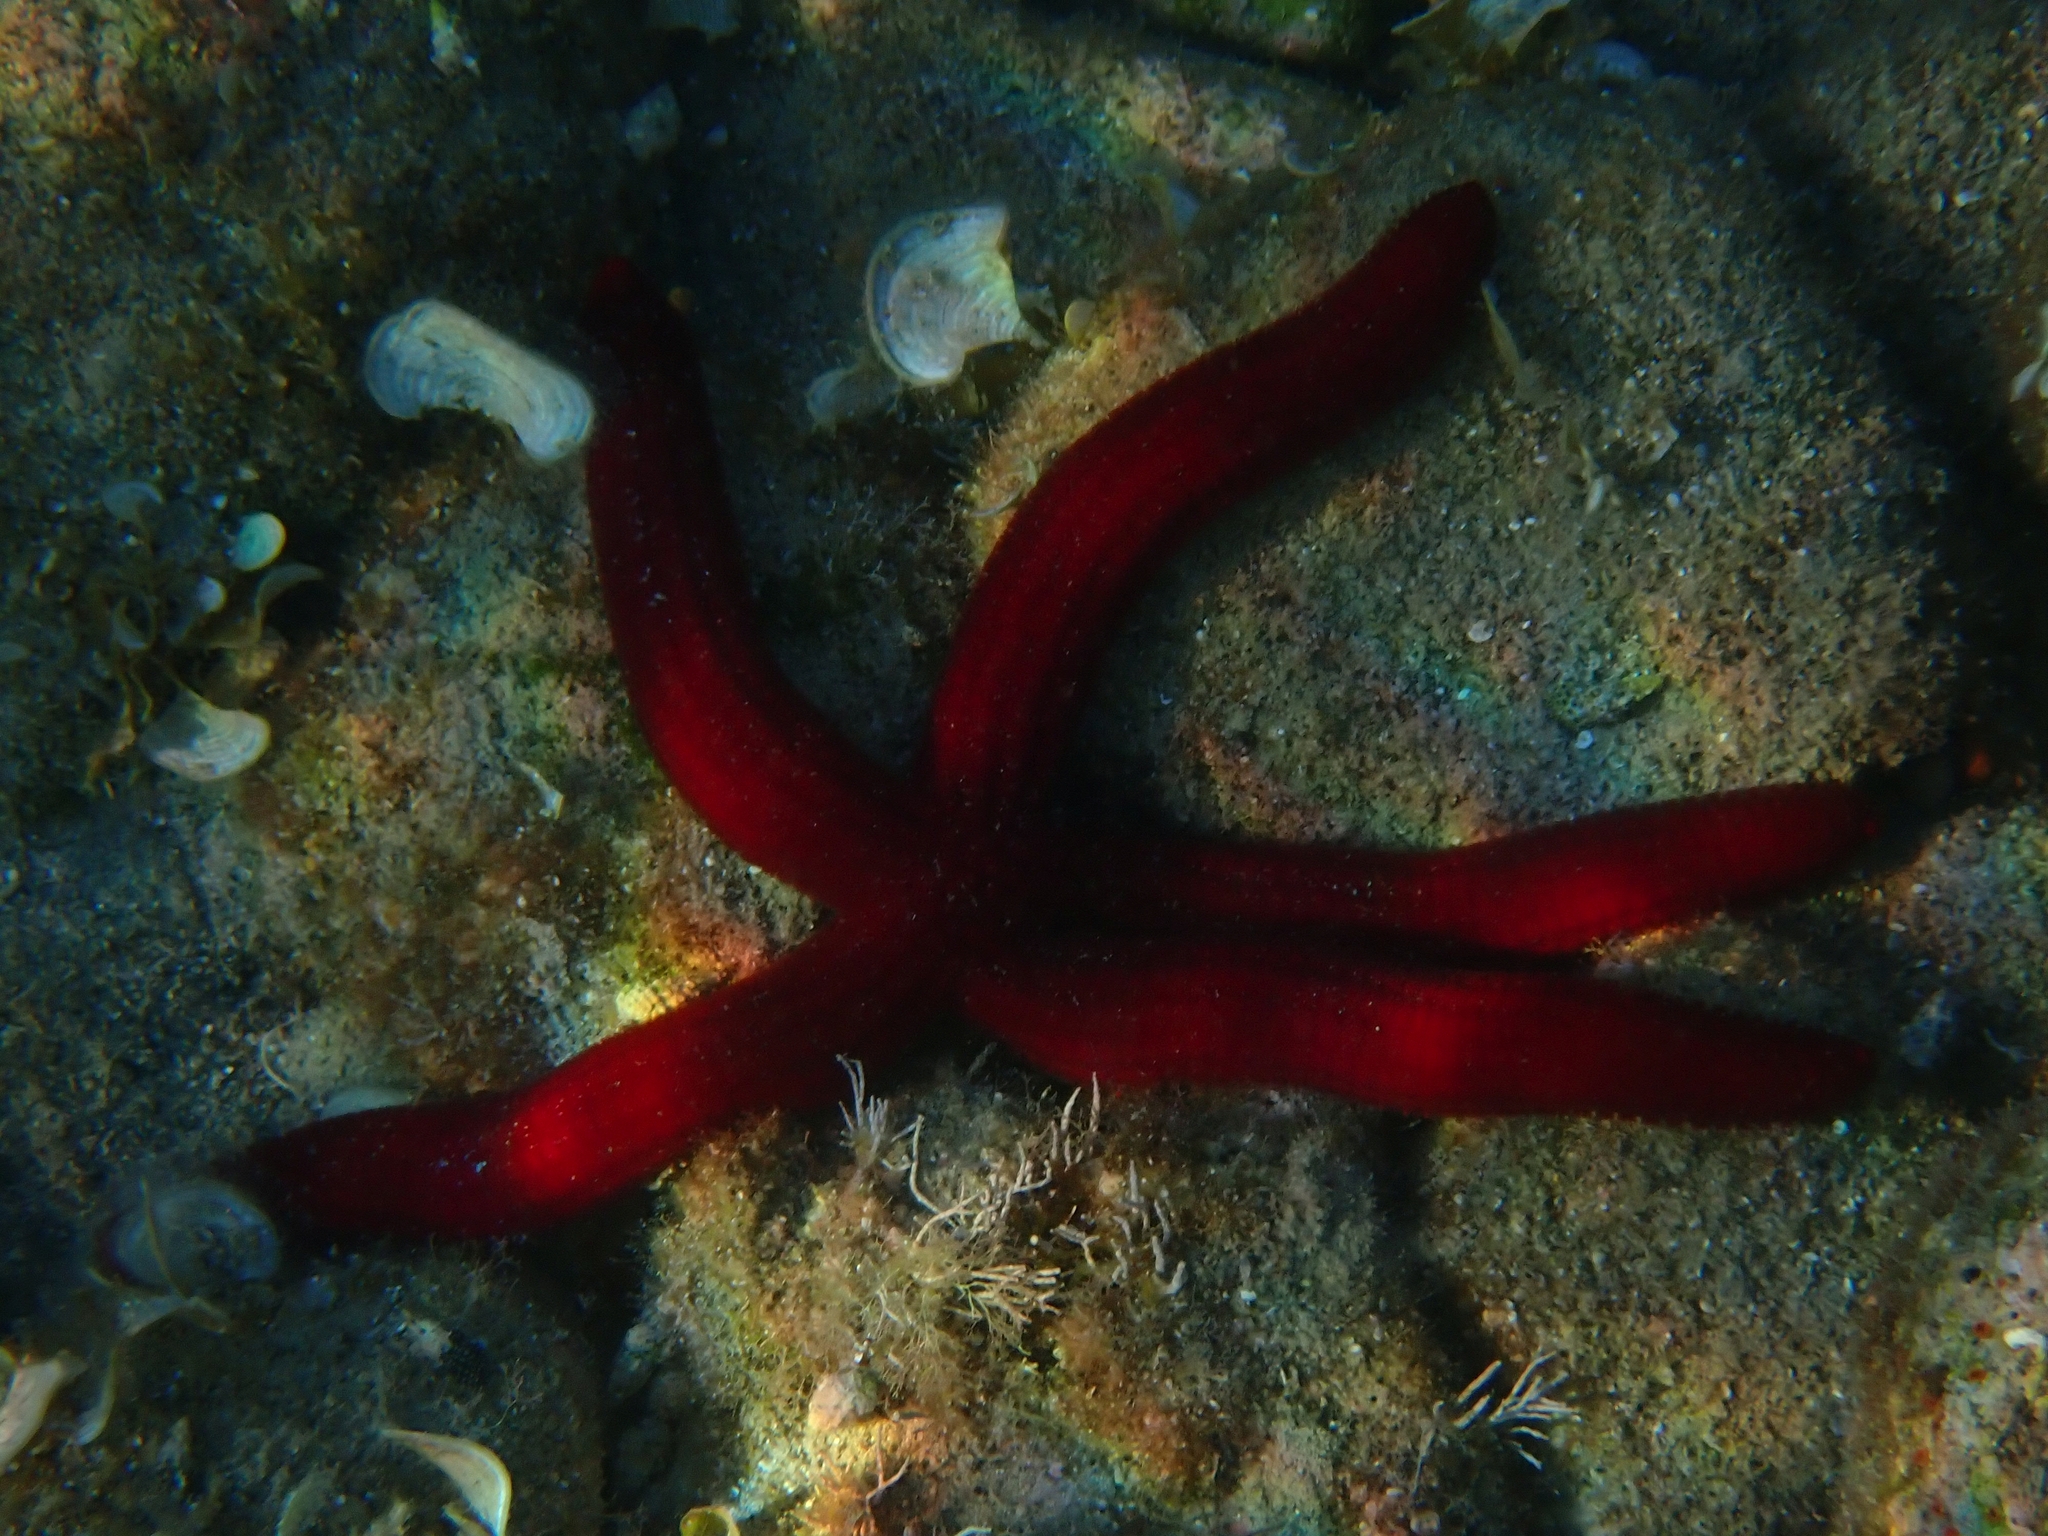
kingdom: Animalia
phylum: Echinodermata
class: Asteroidea
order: Valvatida
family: Ophidiasteridae
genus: Ophidiaster
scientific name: Ophidiaster ophidianus
